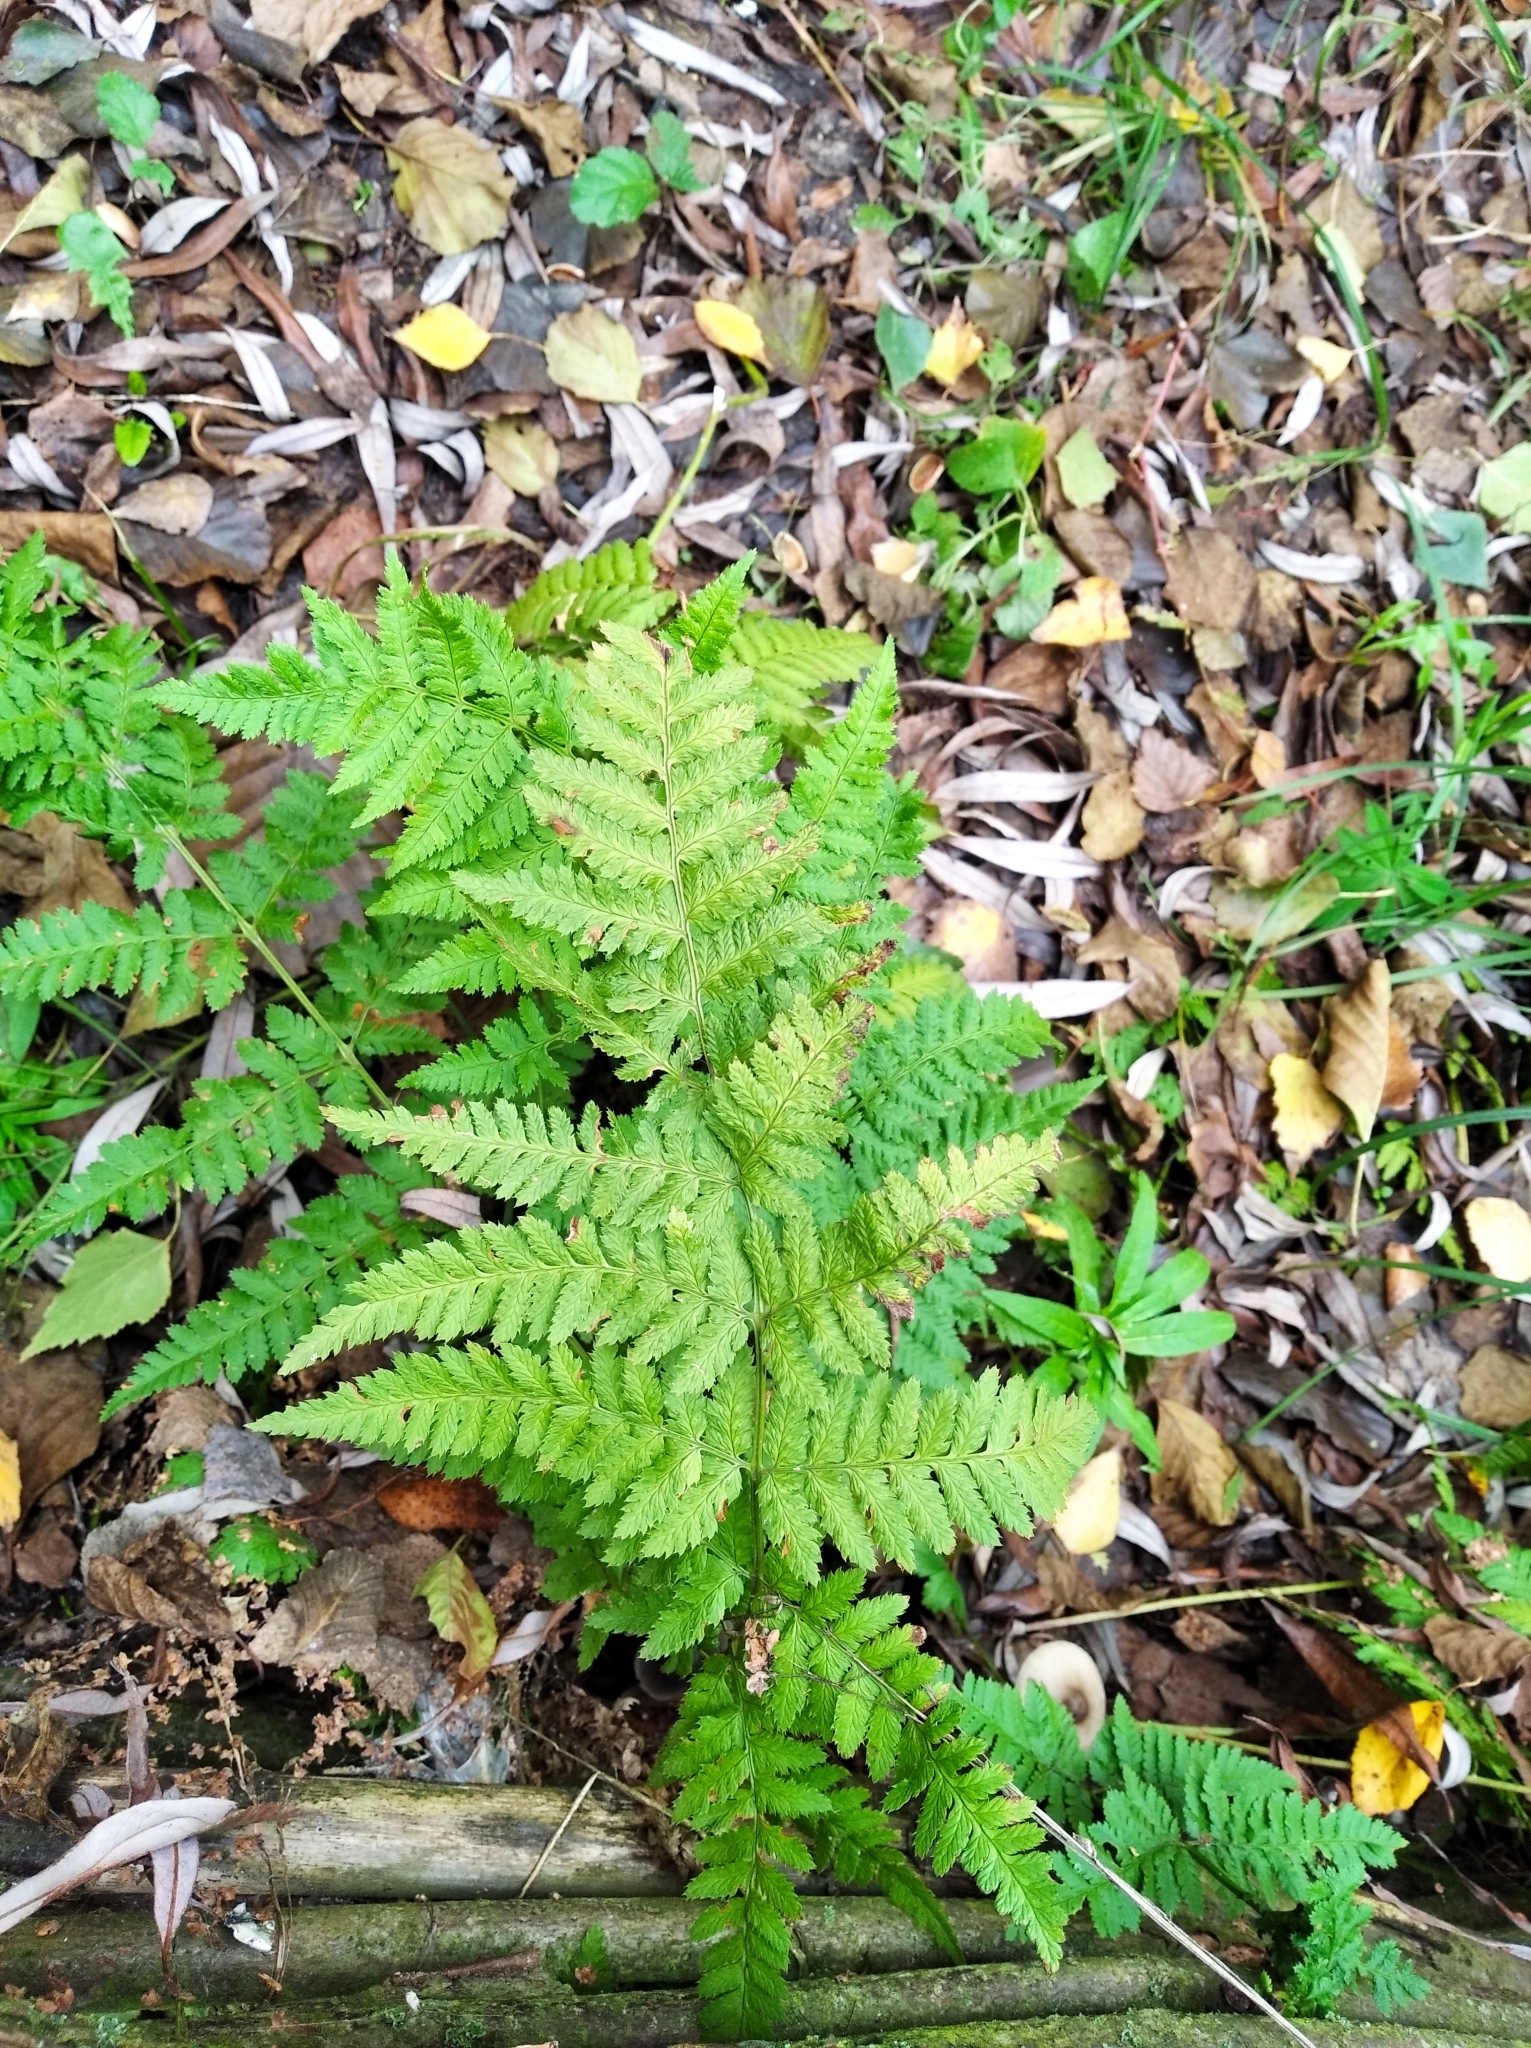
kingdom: Plantae
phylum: Tracheophyta
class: Polypodiopsida
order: Polypodiales
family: Dryopteridaceae
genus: Dryopteris
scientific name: Dryopteris carthusiana
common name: Narrow buckler-fern
